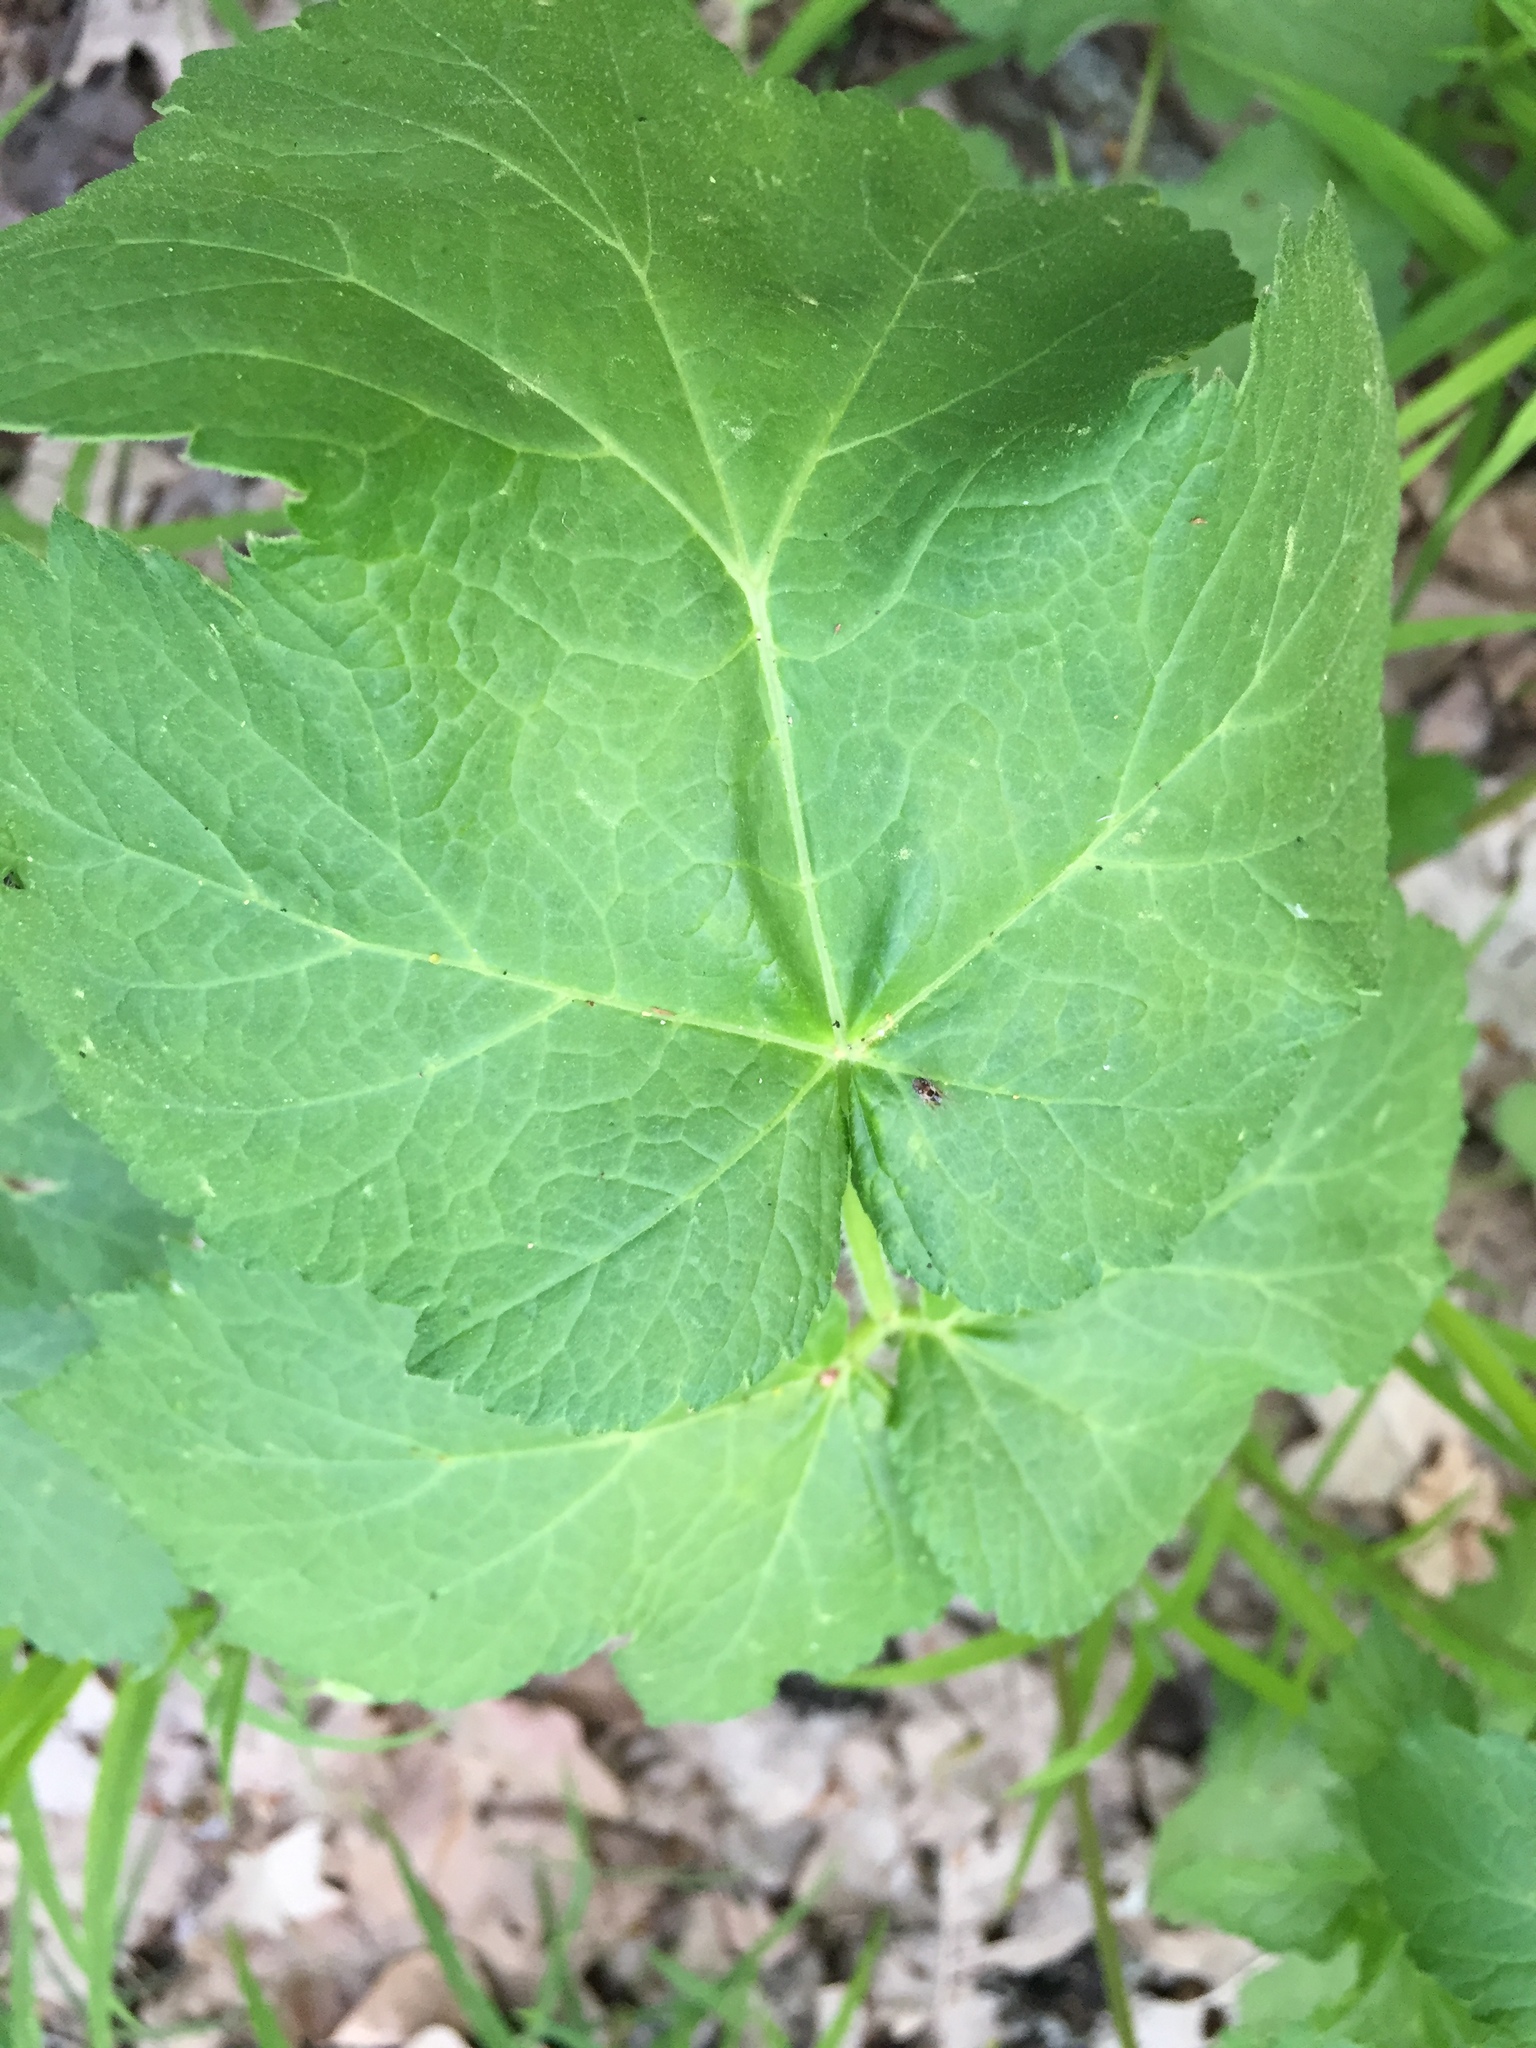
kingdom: Plantae
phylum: Tracheophyta
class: Magnoliopsida
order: Apiales
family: Apiaceae
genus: Heracleum
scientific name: Heracleum sphondylium
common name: Hogweed
